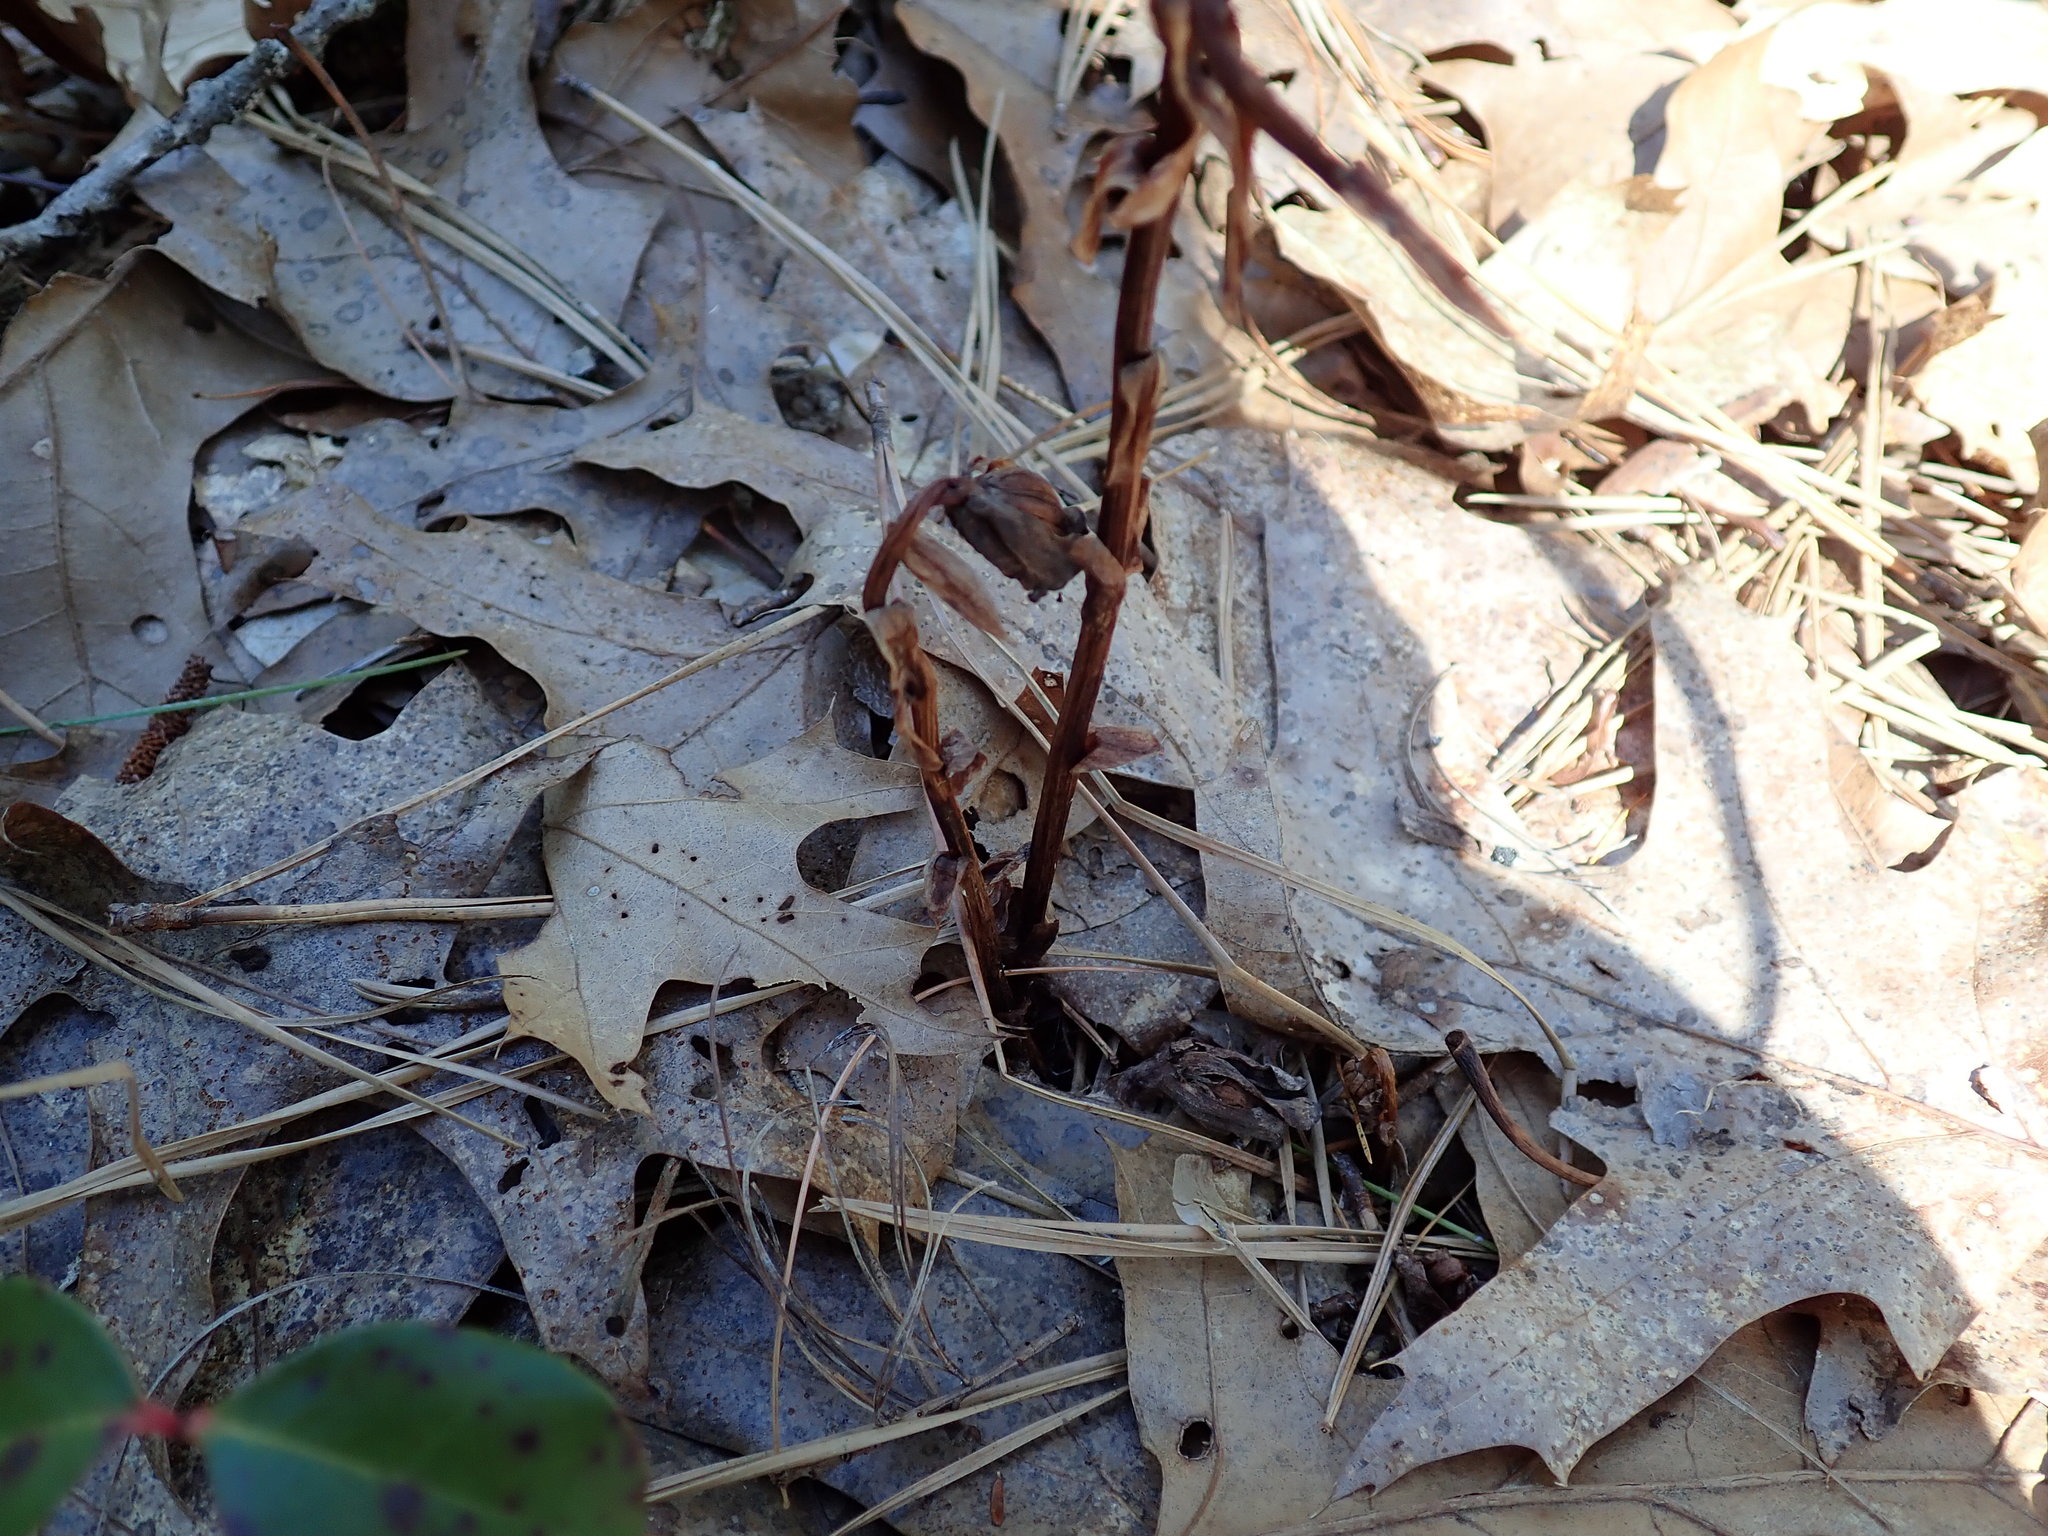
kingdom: Plantae
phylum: Tracheophyta
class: Magnoliopsida
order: Ericales
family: Ericaceae
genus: Monotropa
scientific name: Monotropa uniflora
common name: Convulsion root
